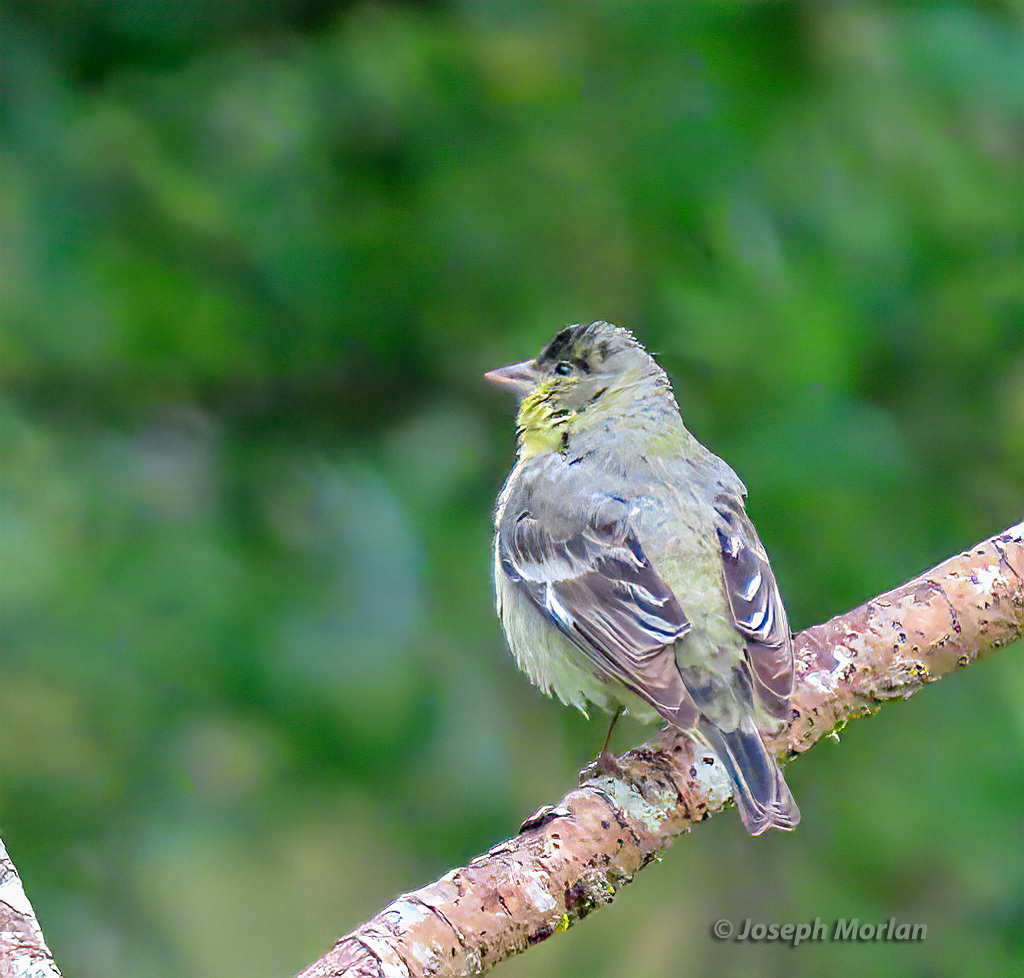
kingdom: Animalia
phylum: Chordata
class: Aves
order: Passeriformes
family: Fringillidae
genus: Spinus
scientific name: Spinus psaltria
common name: Lesser goldfinch
